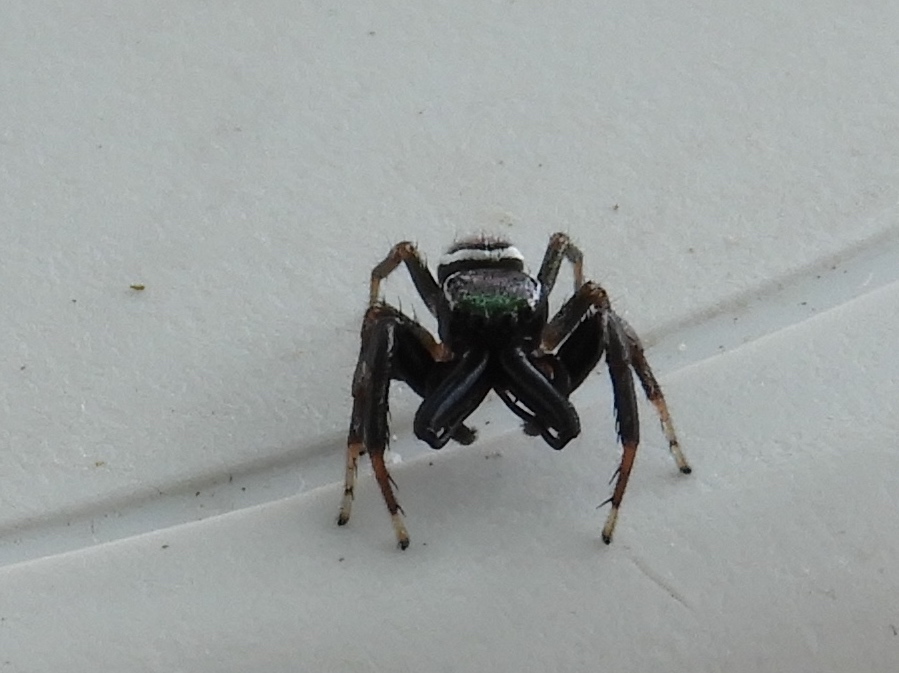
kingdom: Animalia
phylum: Arthropoda
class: Arachnida
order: Araneae
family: Salticidae
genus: Messua
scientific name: Messua limbata
